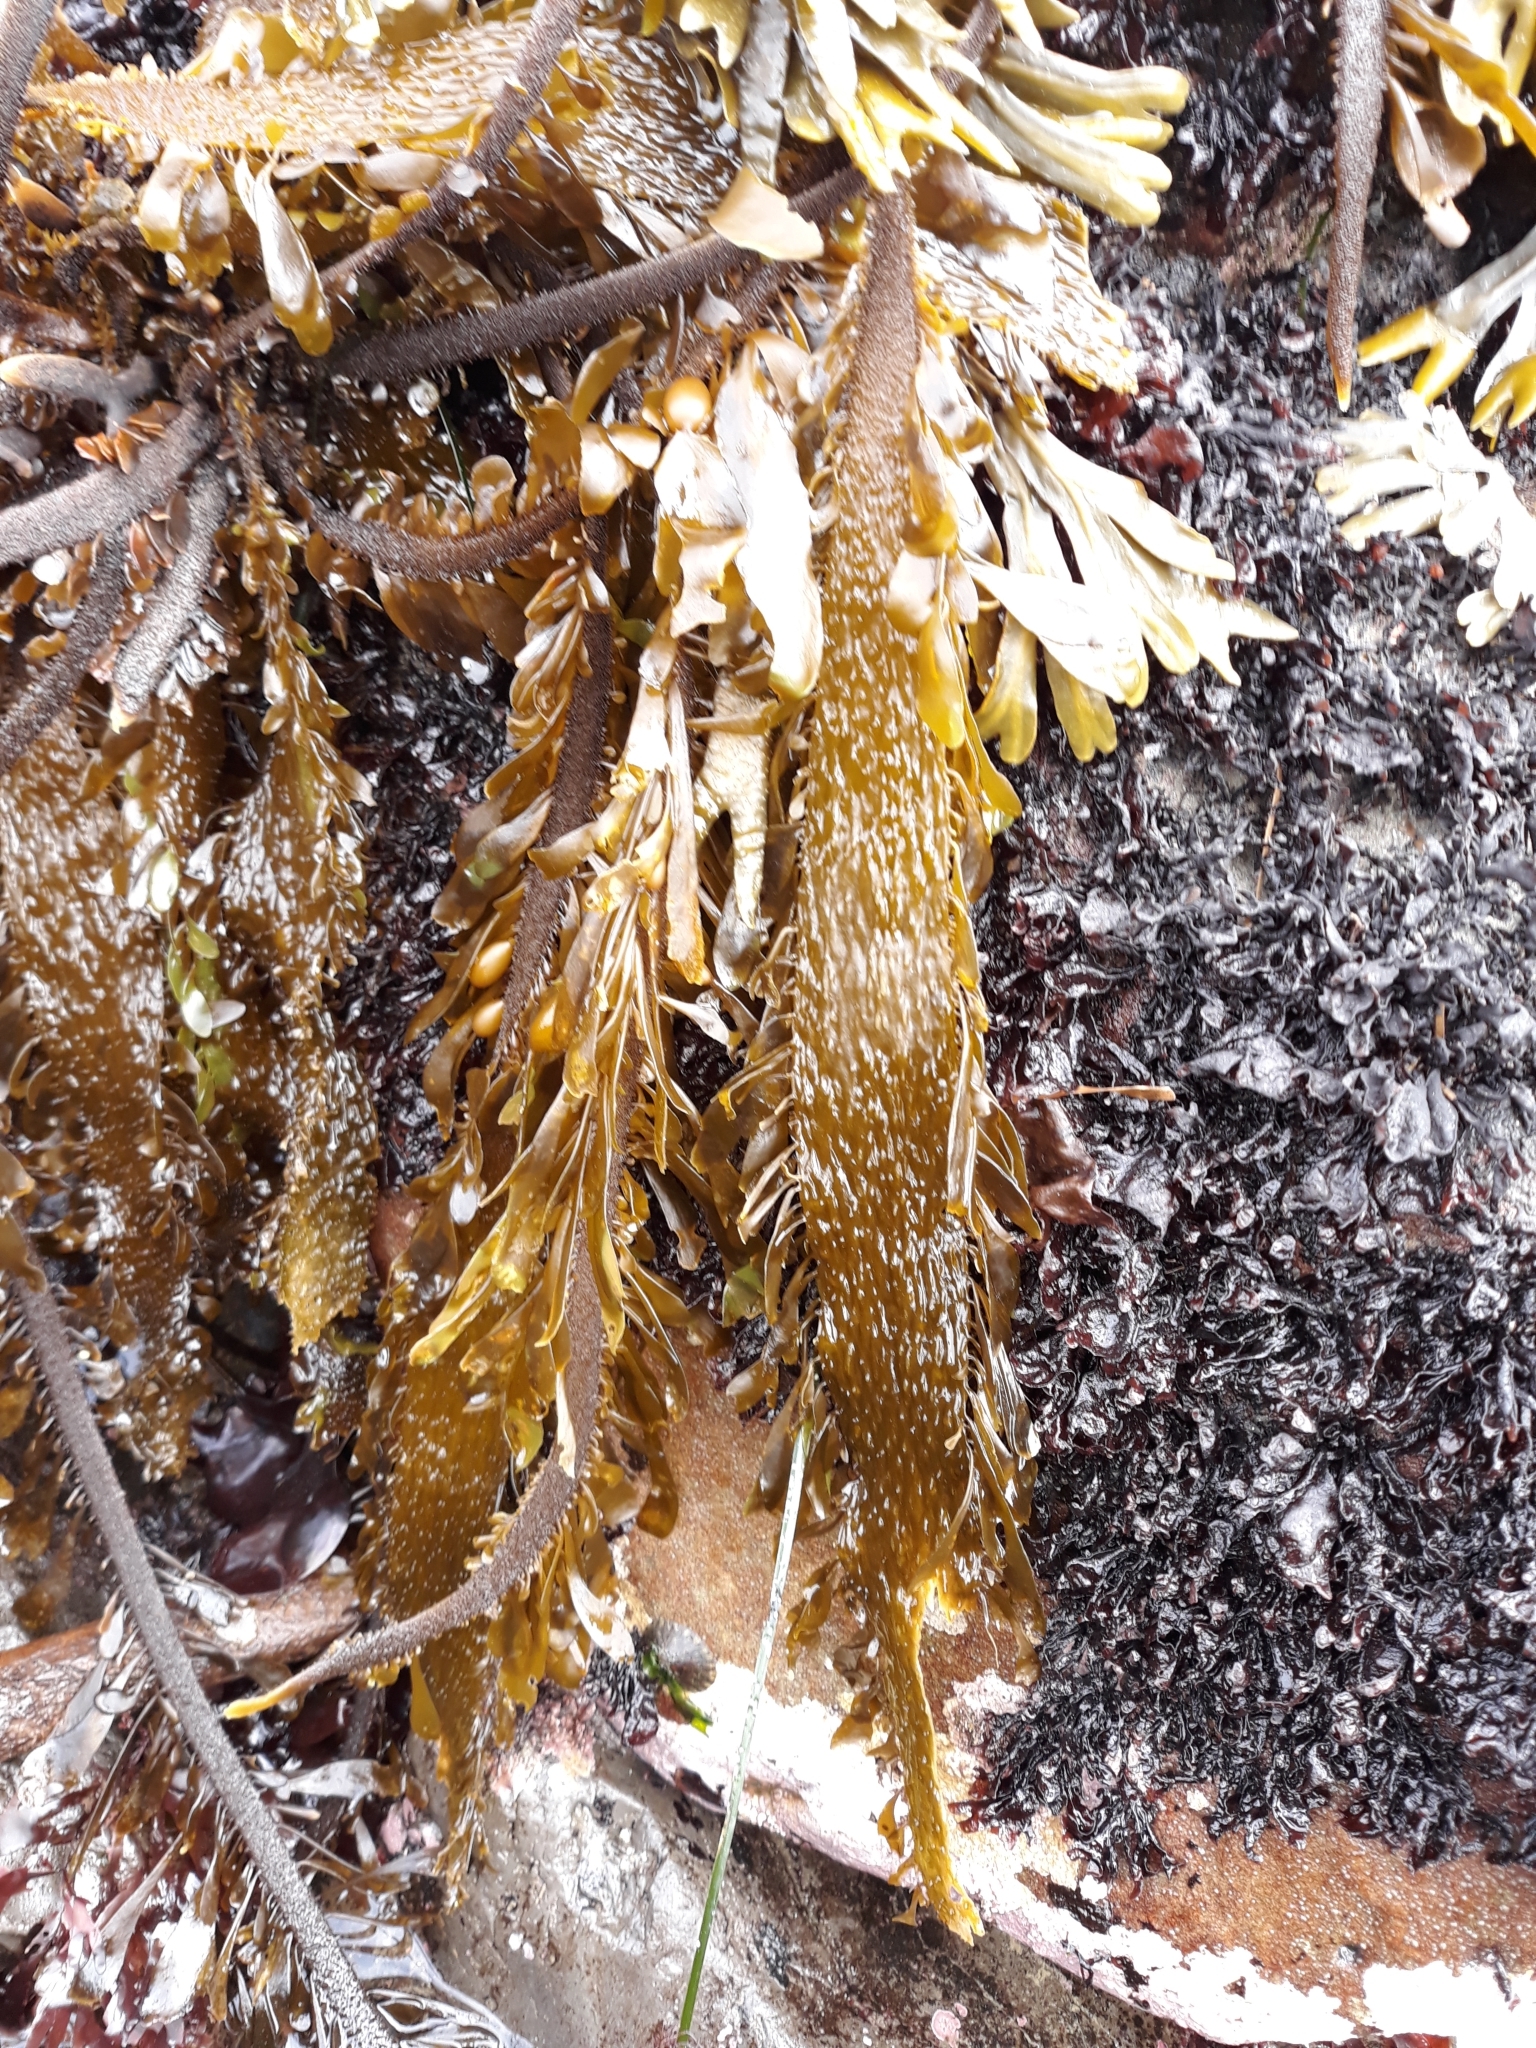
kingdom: Chromista
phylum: Ochrophyta
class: Phaeophyceae
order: Laminariales
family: Lessoniaceae
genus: Egregia
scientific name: Egregia menziesii
